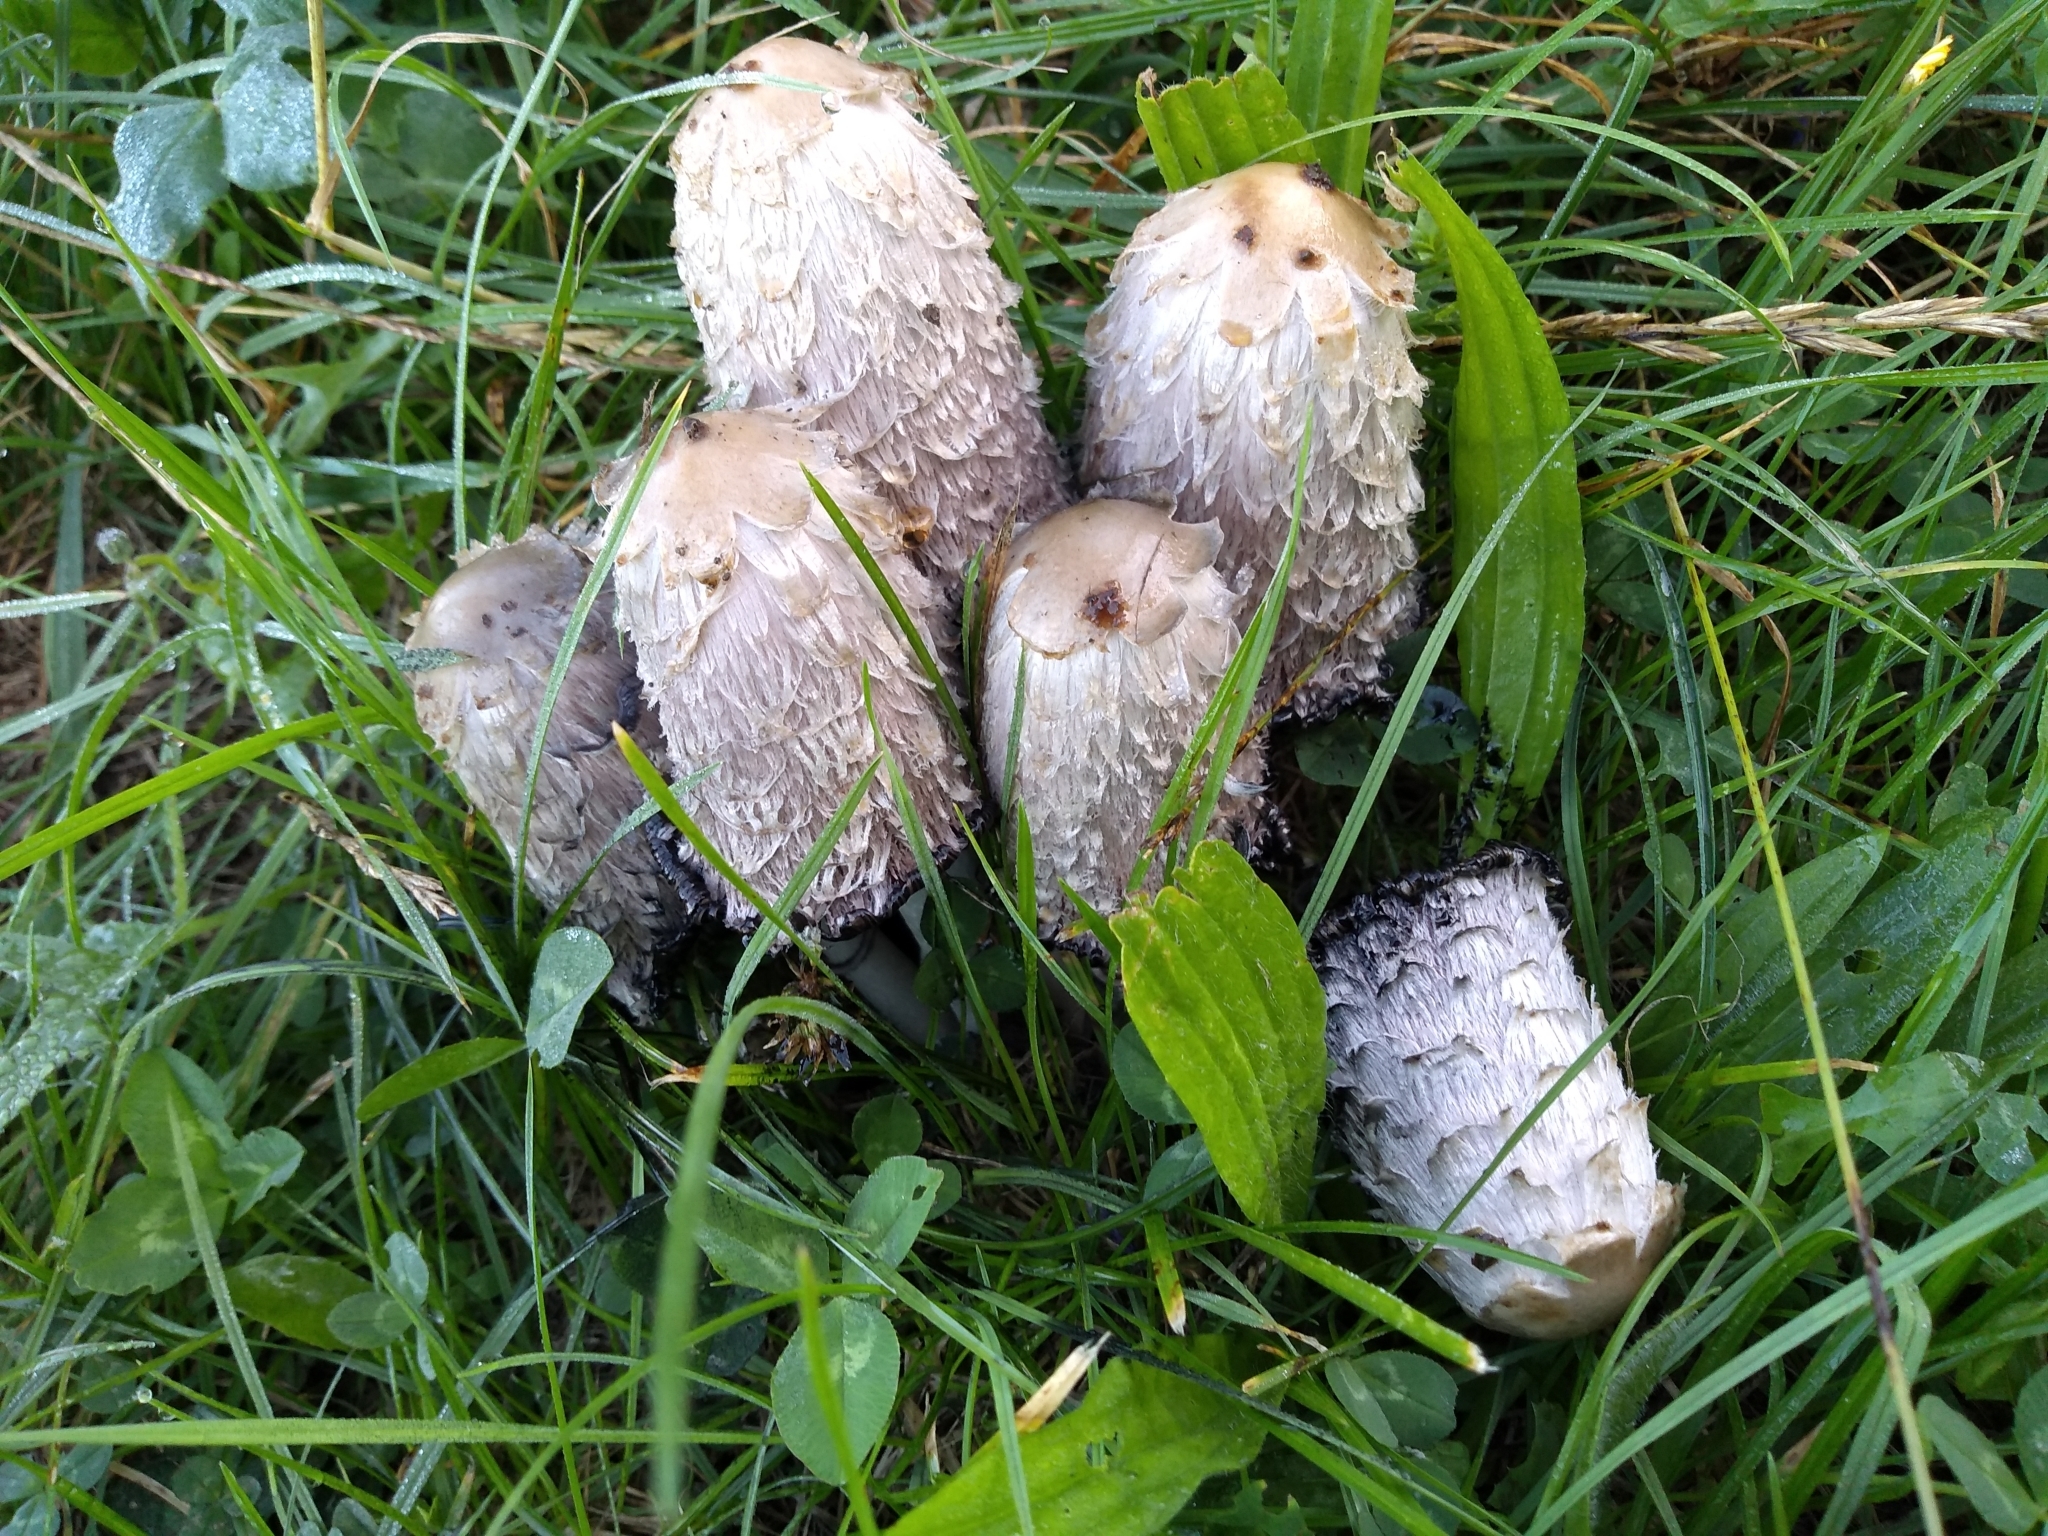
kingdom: Fungi
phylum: Basidiomycota
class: Agaricomycetes
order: Agaricales
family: Agaricaceae
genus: Coprinus
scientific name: Coprinus comatus
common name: Lawyer's wig
